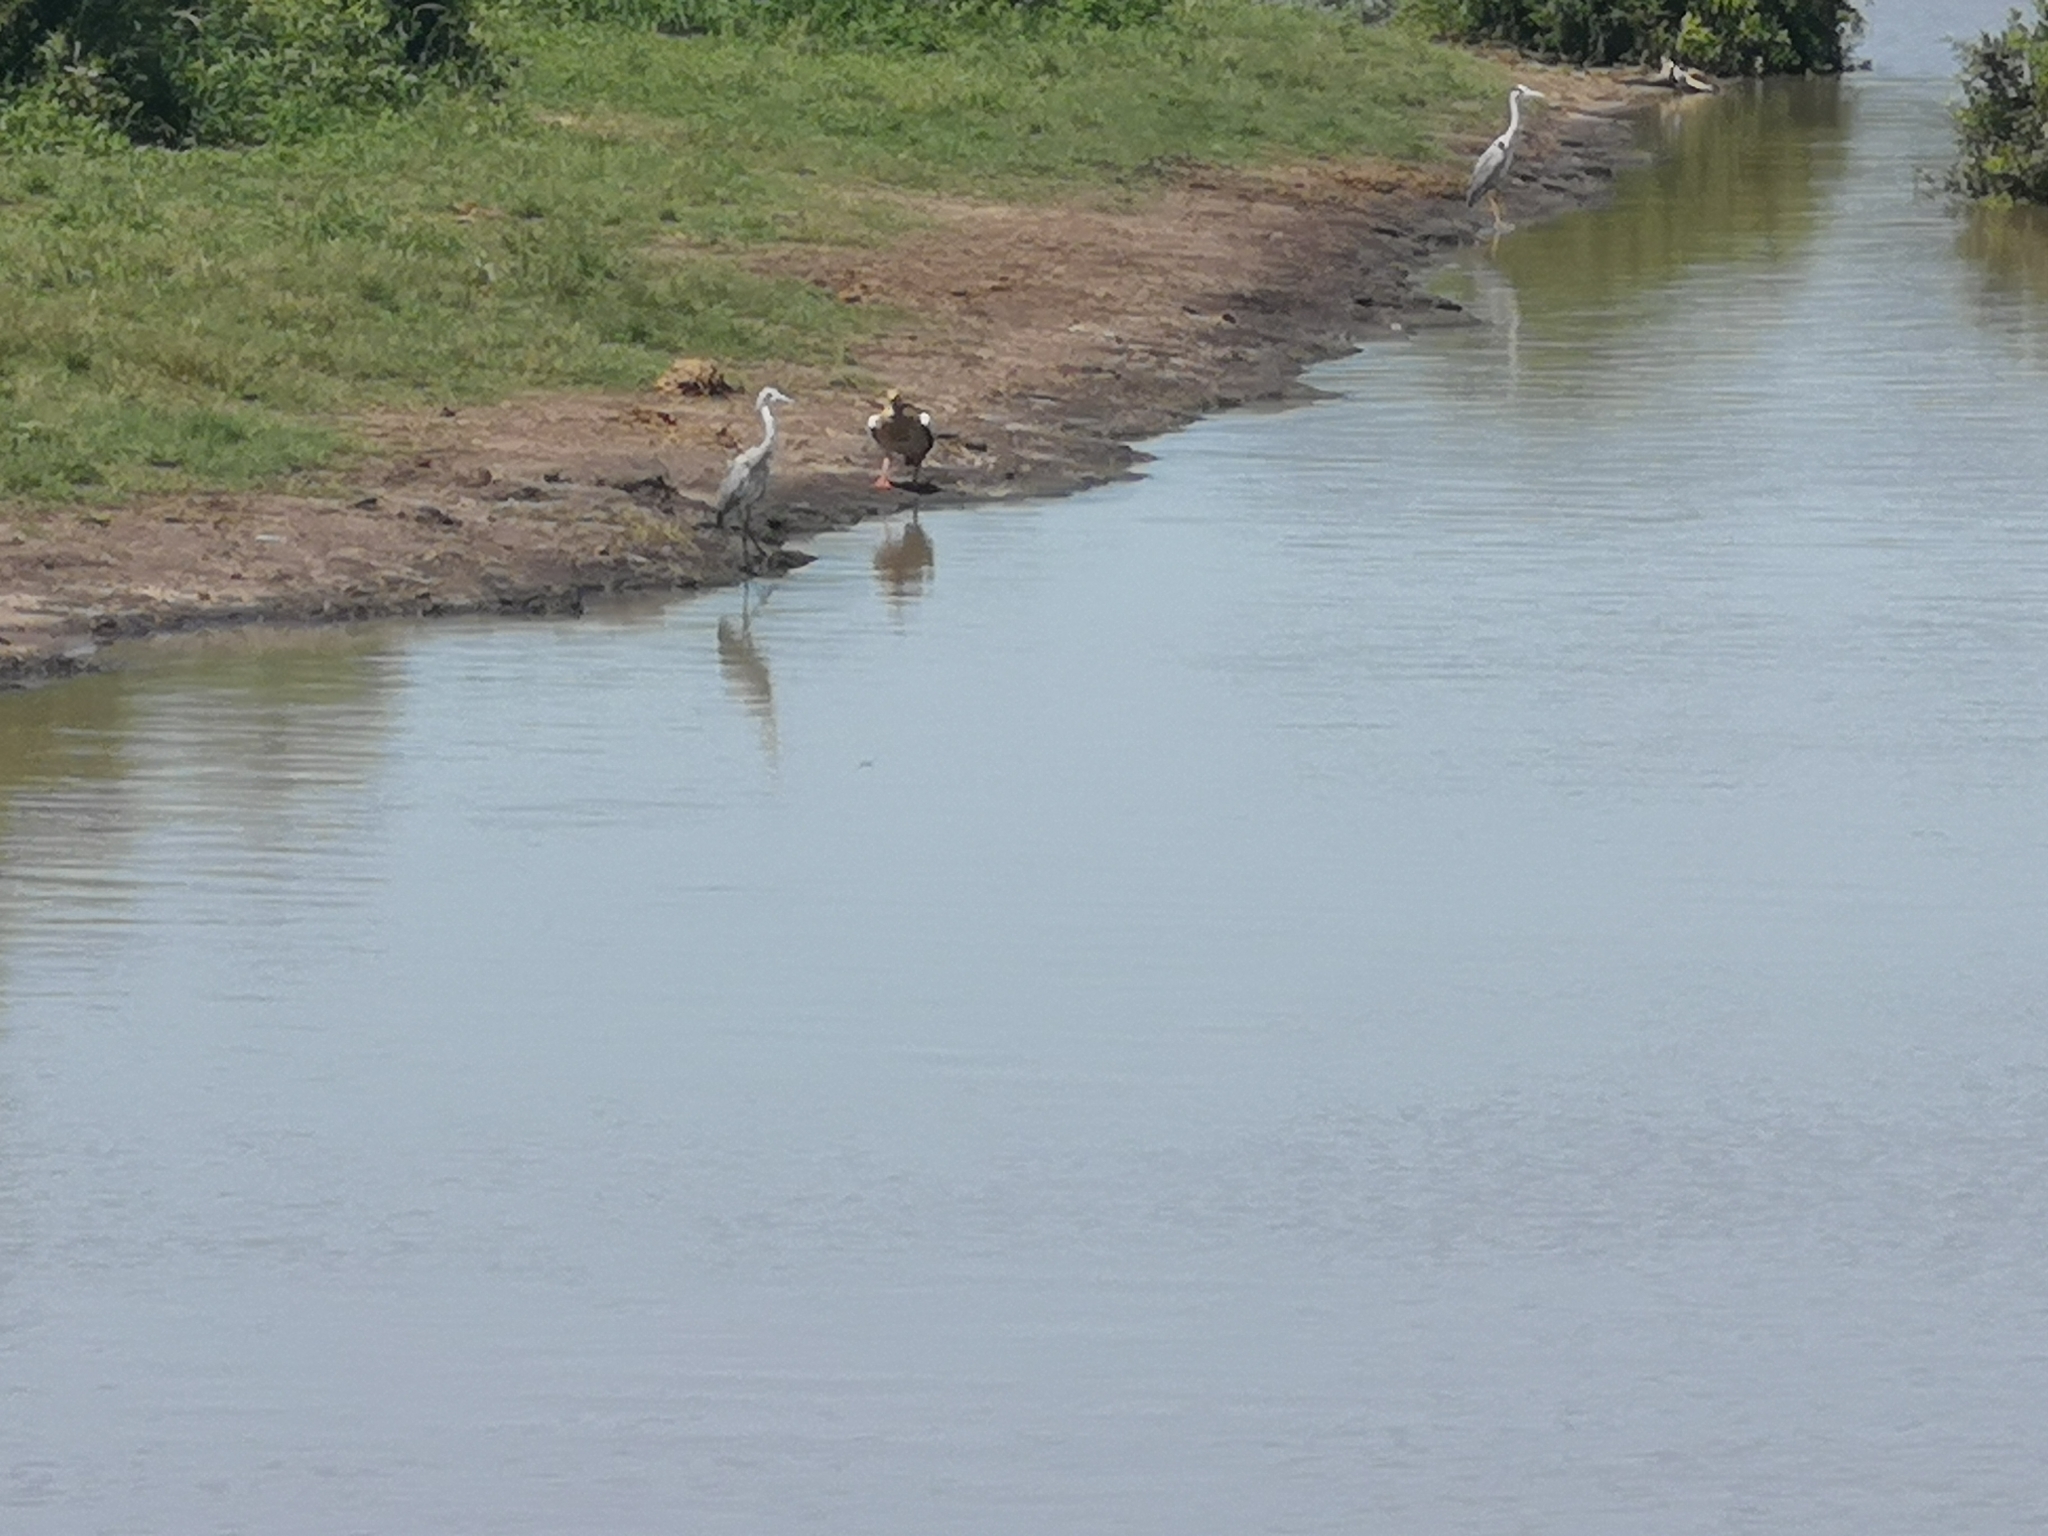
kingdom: Animalia
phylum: Chordata
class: Aves
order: Pelecaniformes
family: Ardeidae
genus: Ardea
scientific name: Ardea cinerea
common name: Grey heron
